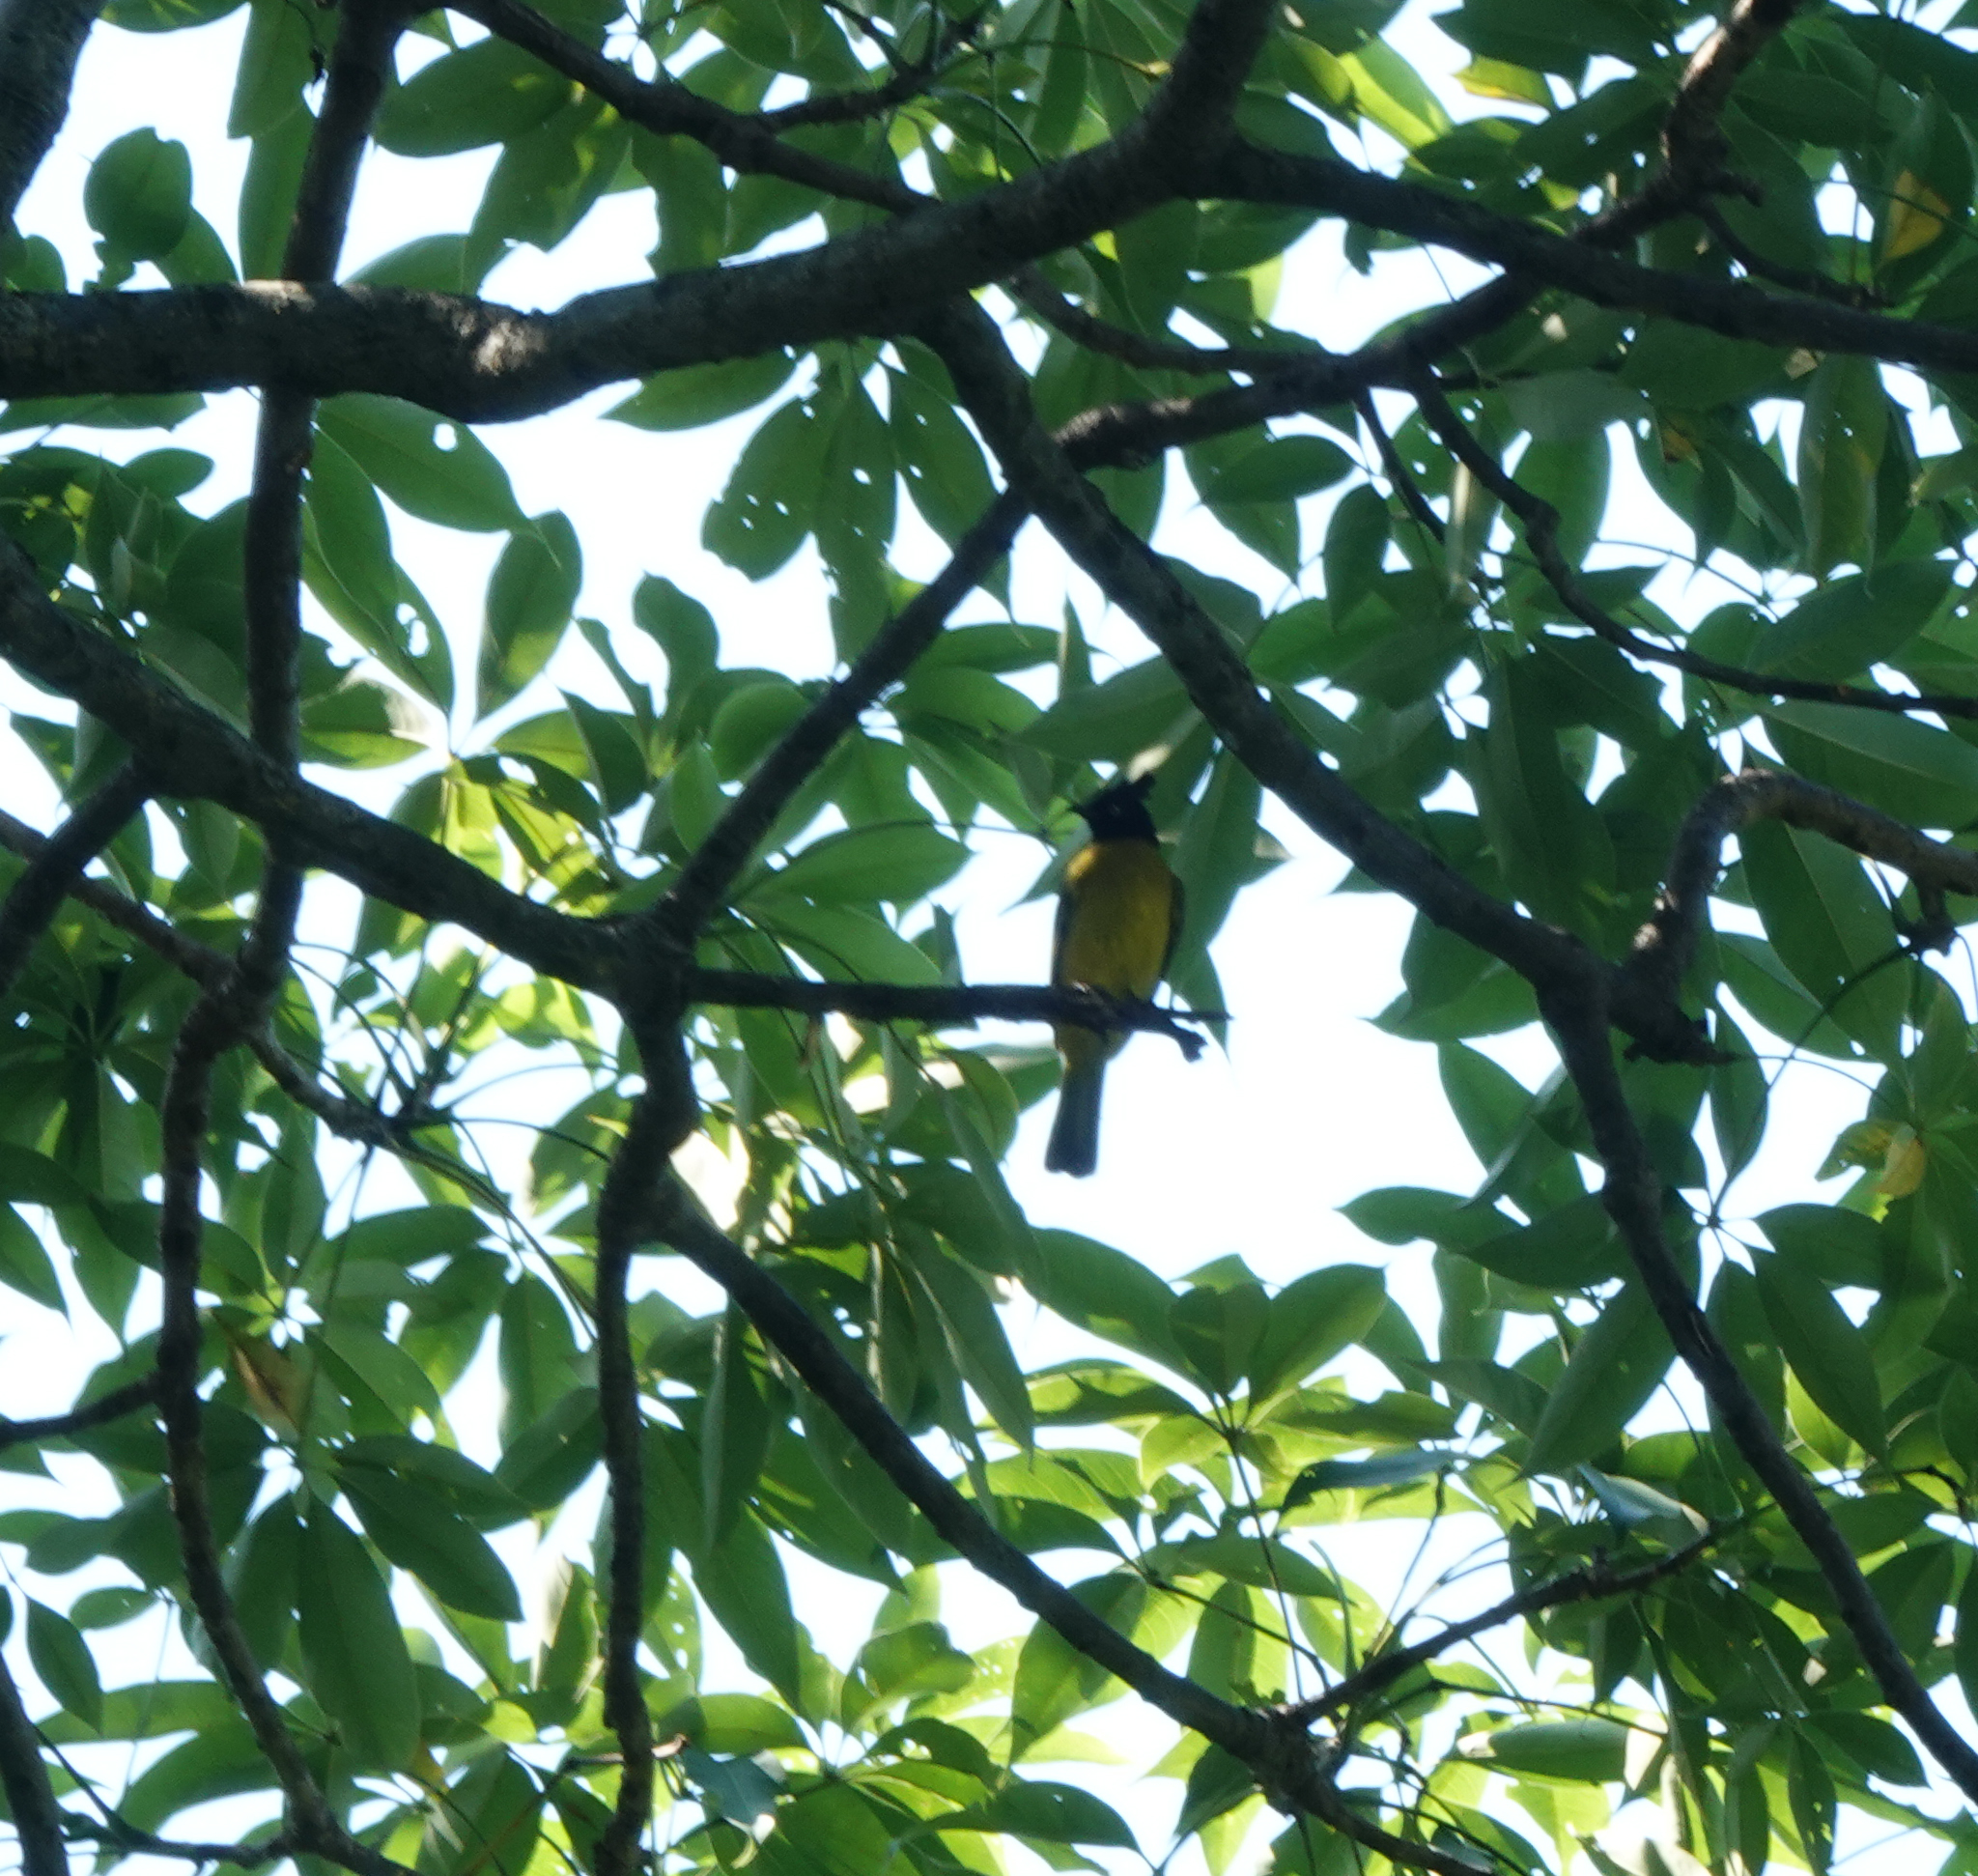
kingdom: Animalia
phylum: Chordata
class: Aves
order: Passeriformes
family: Pycnonotidae
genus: Pycnonotus
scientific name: Pycnonotus flaviventris
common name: Black-crested bulbul
